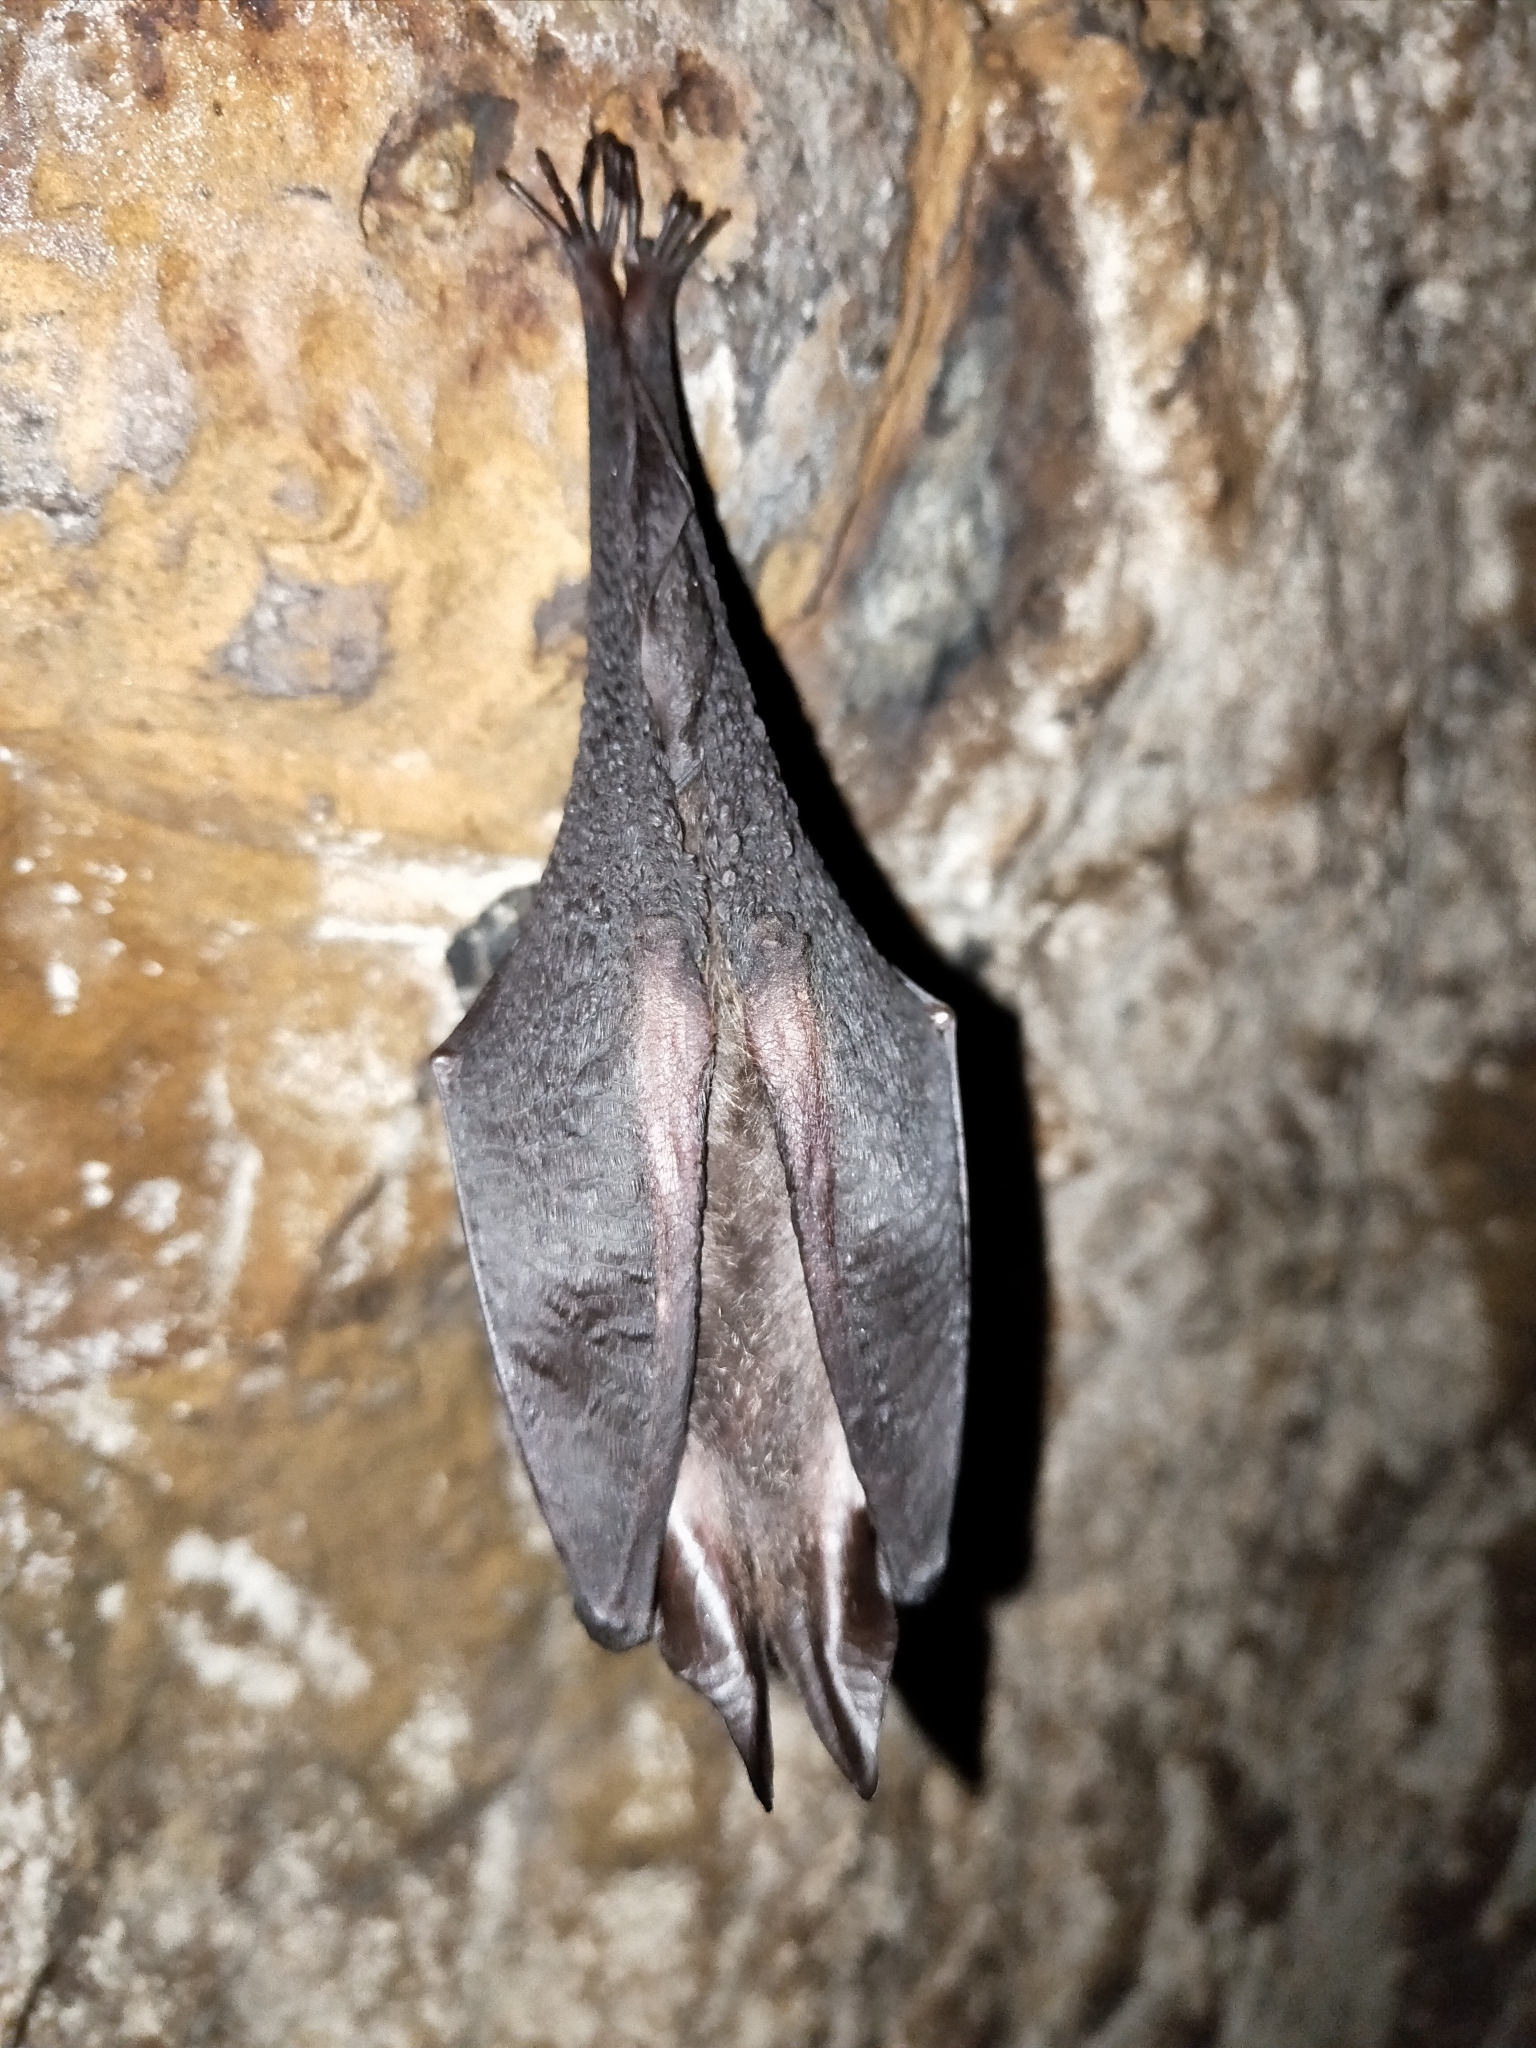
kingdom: Animalia
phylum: Chordata
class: Mammalia
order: Chiroptera
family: Rhinolophidae
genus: Rhinolophus
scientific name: Rhinolophus formosae
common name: Formosan woolly horseshoe bat
